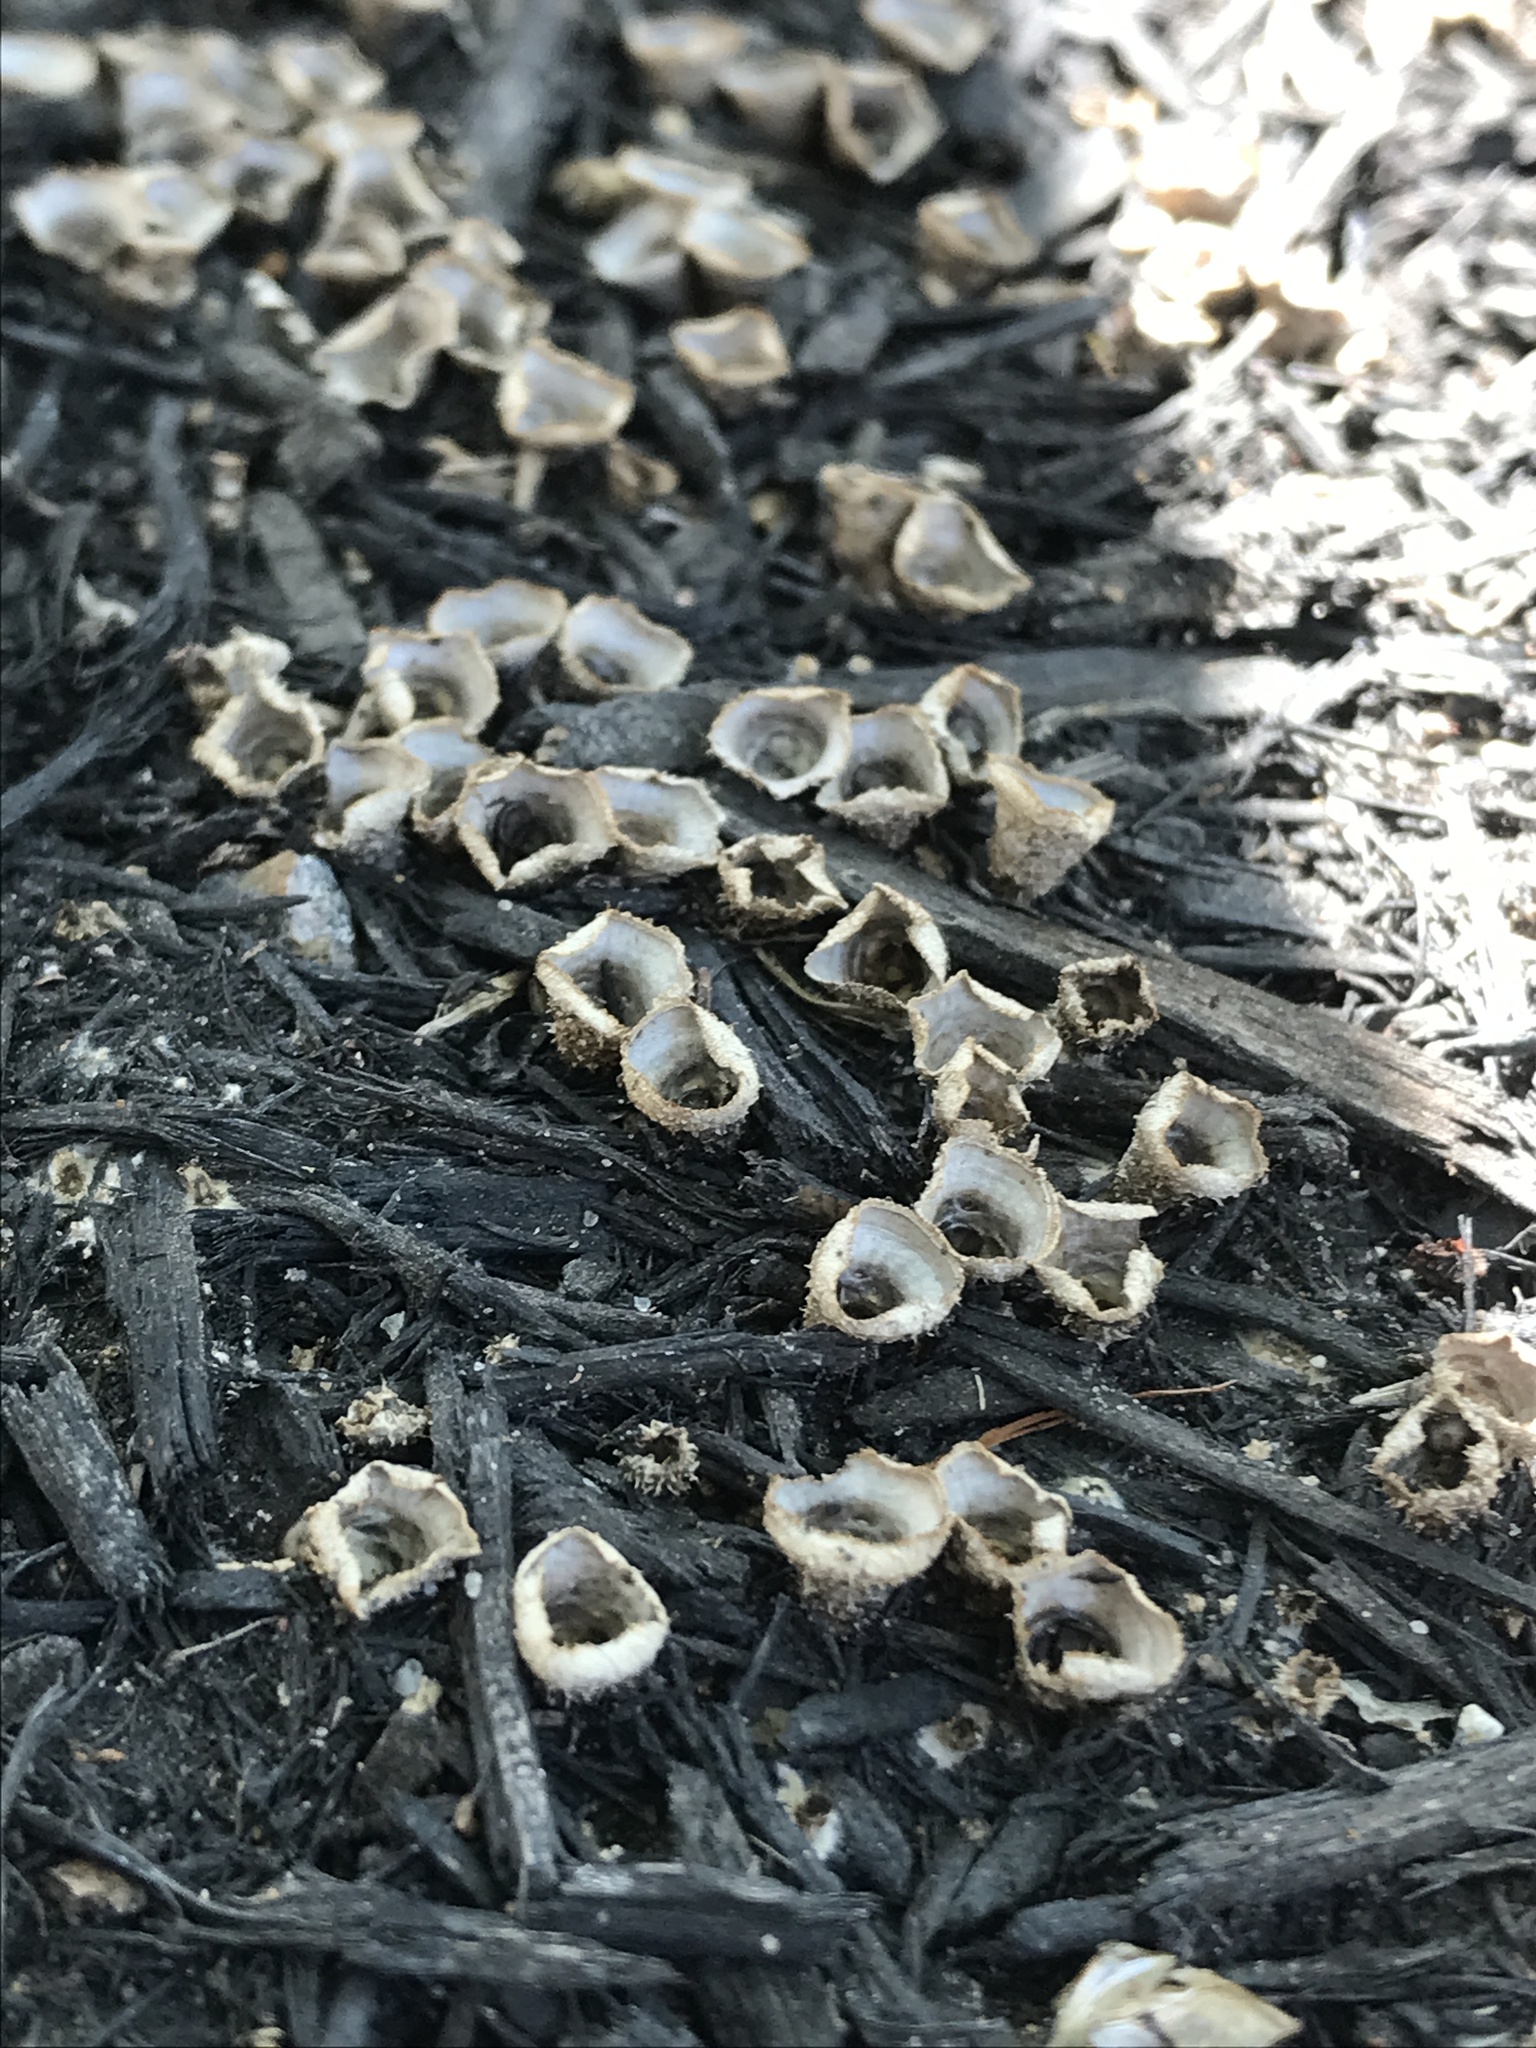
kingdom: Fungi
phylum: Basidiomycota
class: Agaricomycetes
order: Agaricales
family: Agaricaceae
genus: Cyathus
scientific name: Cyathus stercoreus
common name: Dung bird's nest
